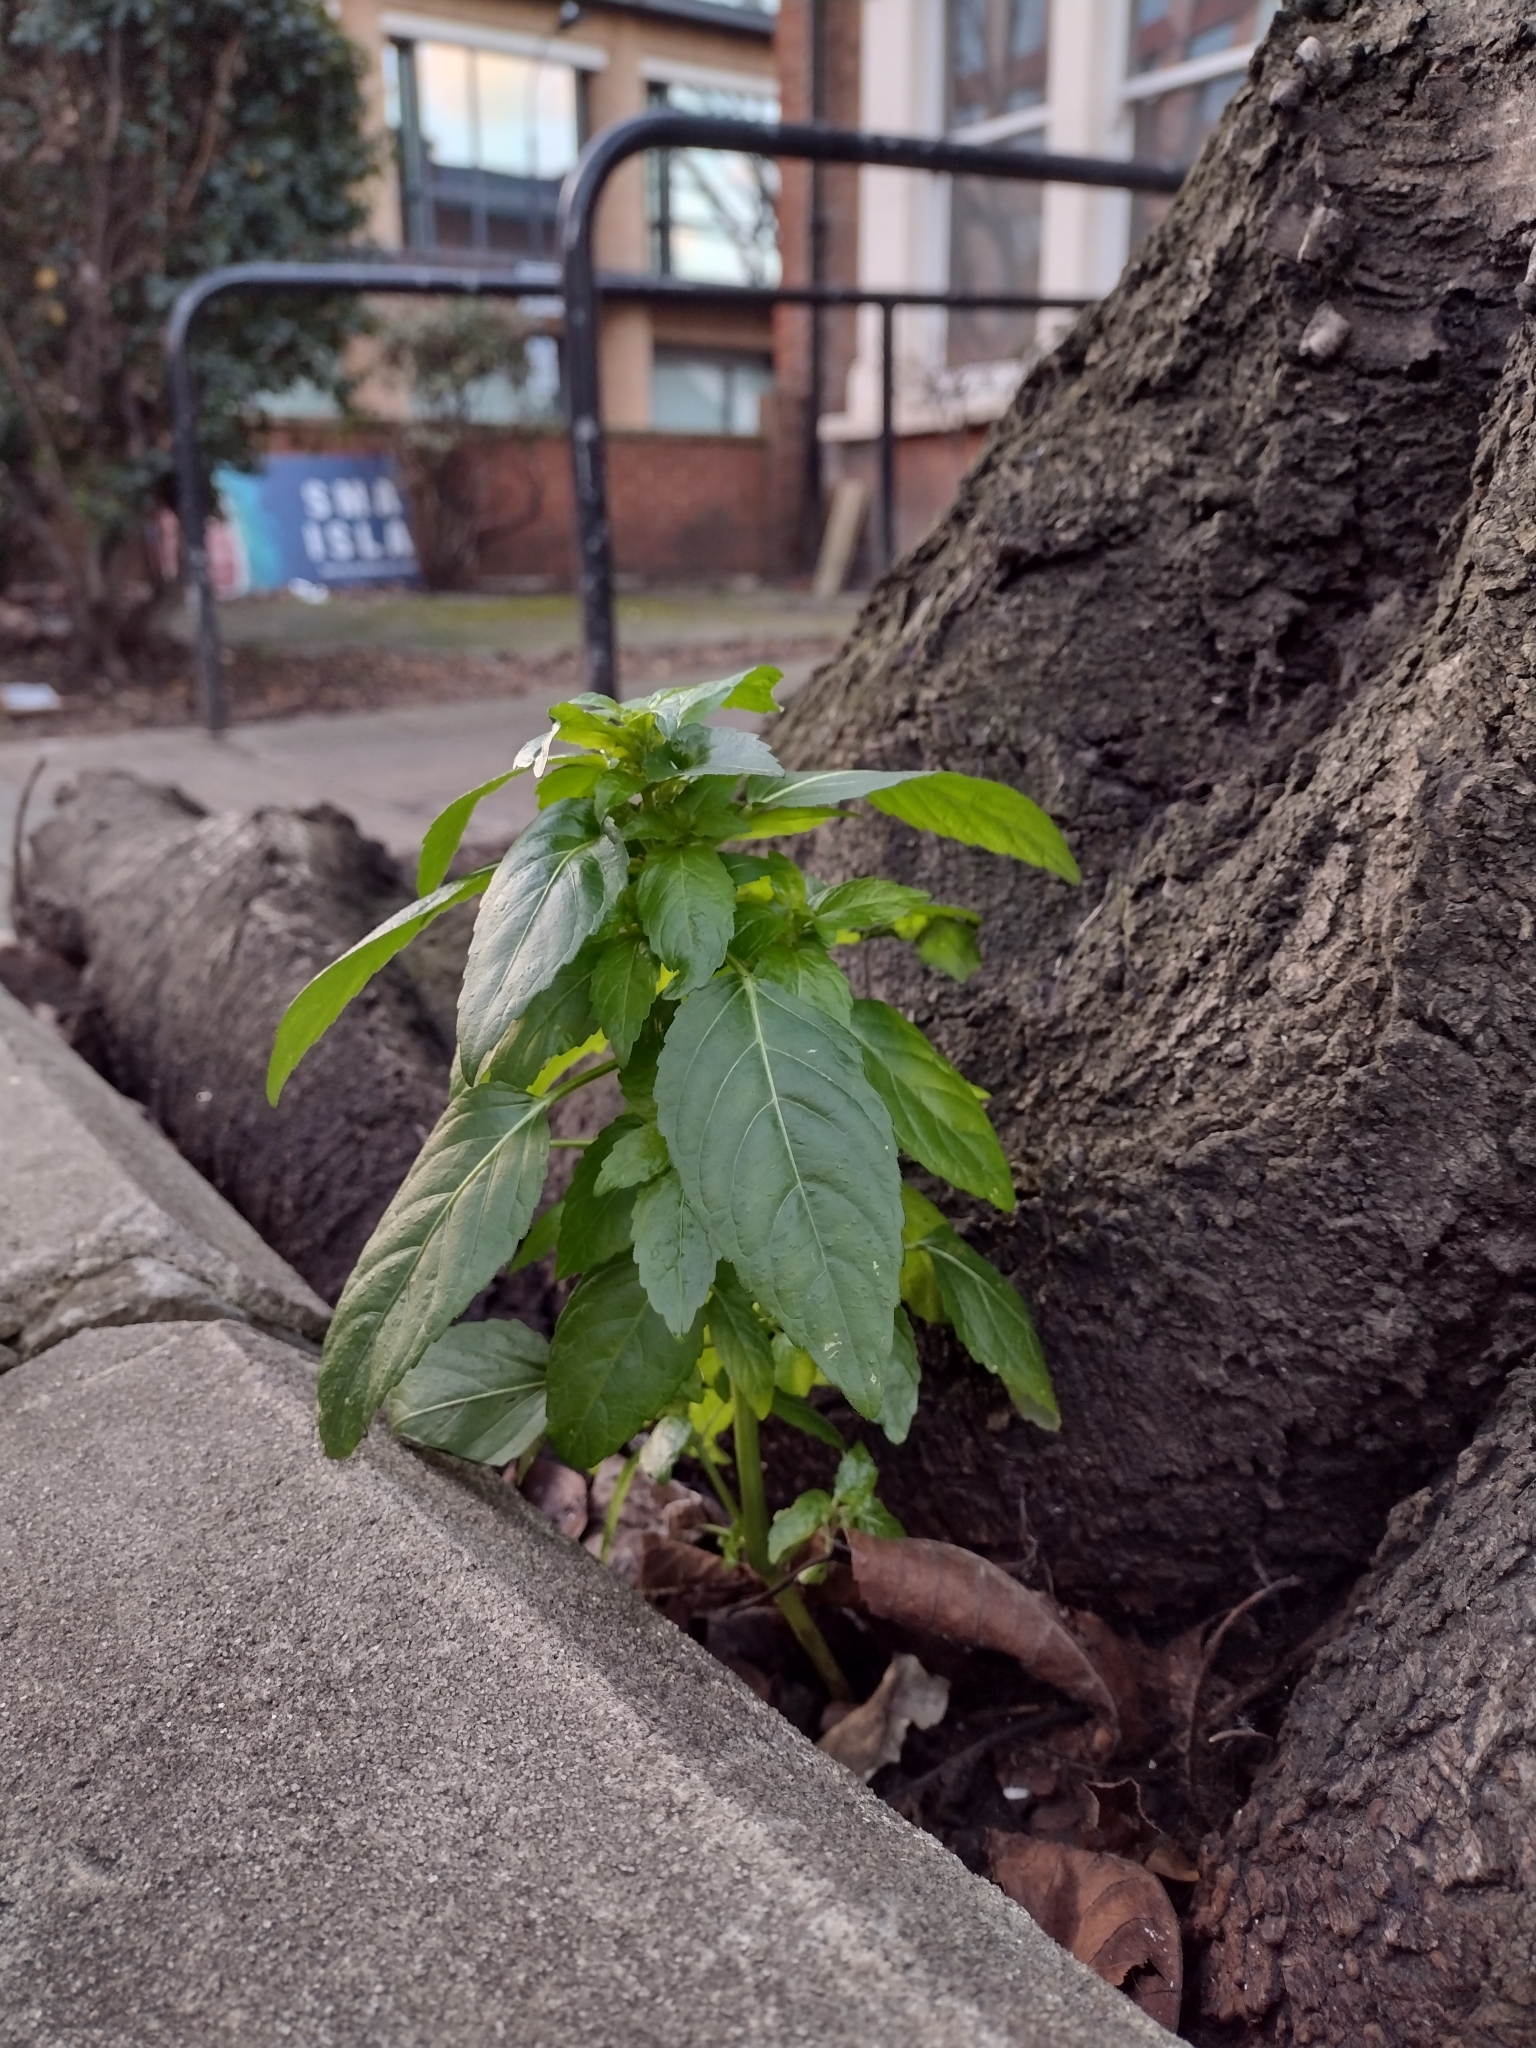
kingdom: Plantae
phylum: Tracheophyta
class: Magnoliopsida
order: Malpighiales
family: Euphorbiaceae
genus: Mercurialis
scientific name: Mercurialis annua
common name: Annual mercury
